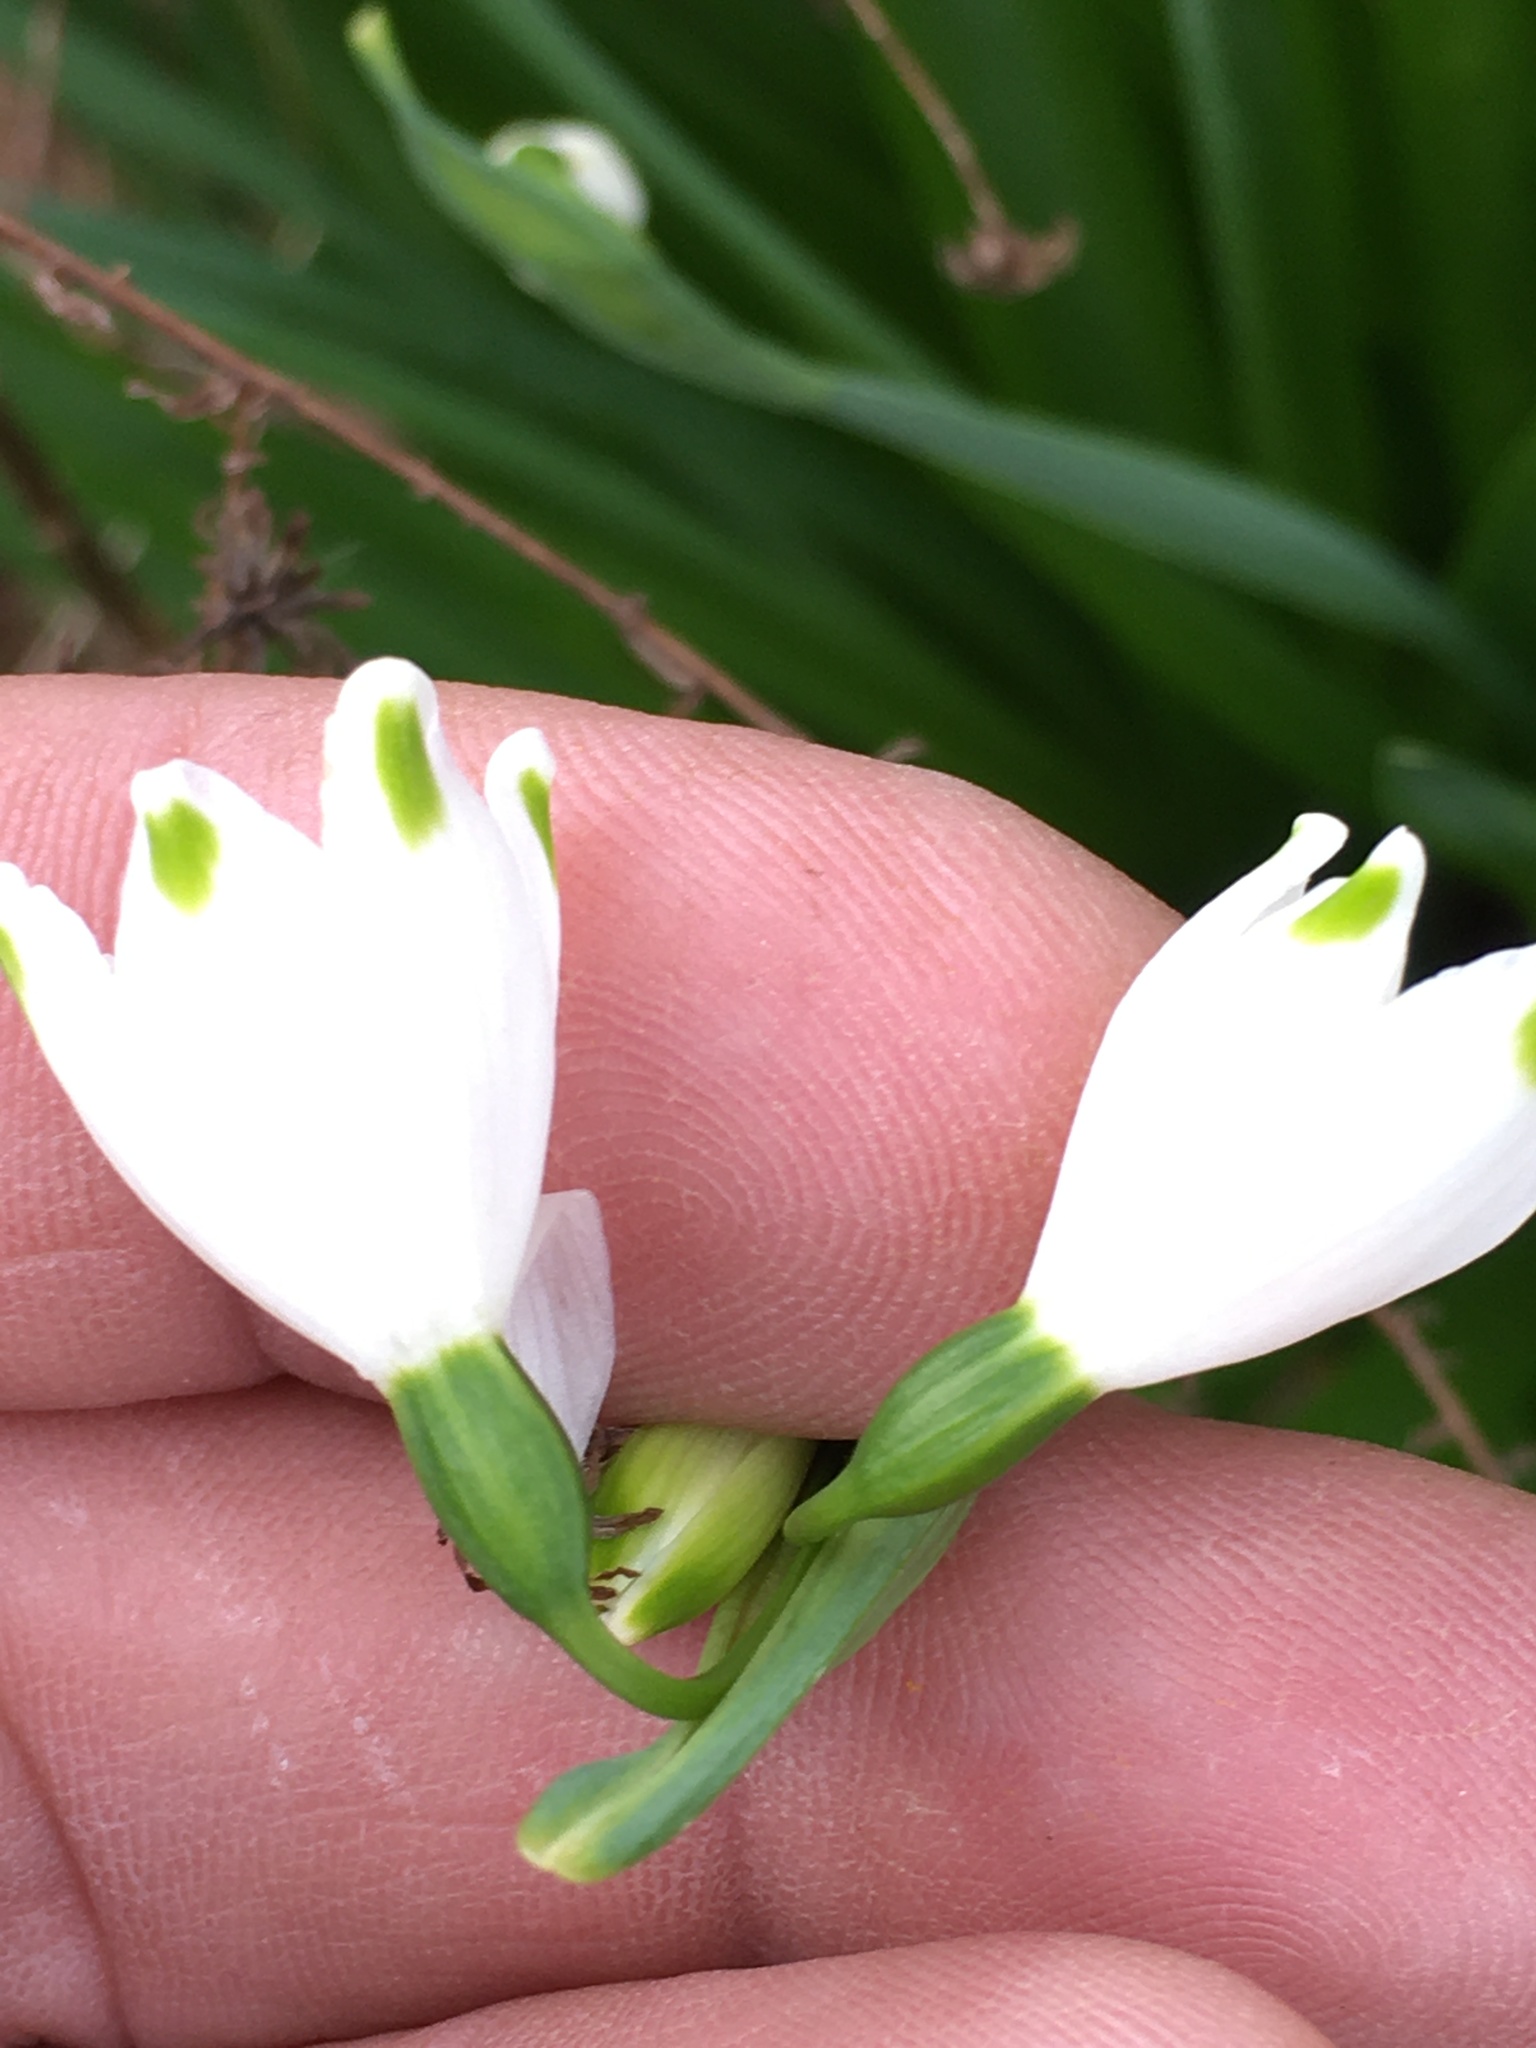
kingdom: Plantae
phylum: Tracheophyta
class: Liliopsida
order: Asparagales
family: Amaryllidaceae
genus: Leucojum
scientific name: Leucojum aestivum
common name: Summer snowflake
